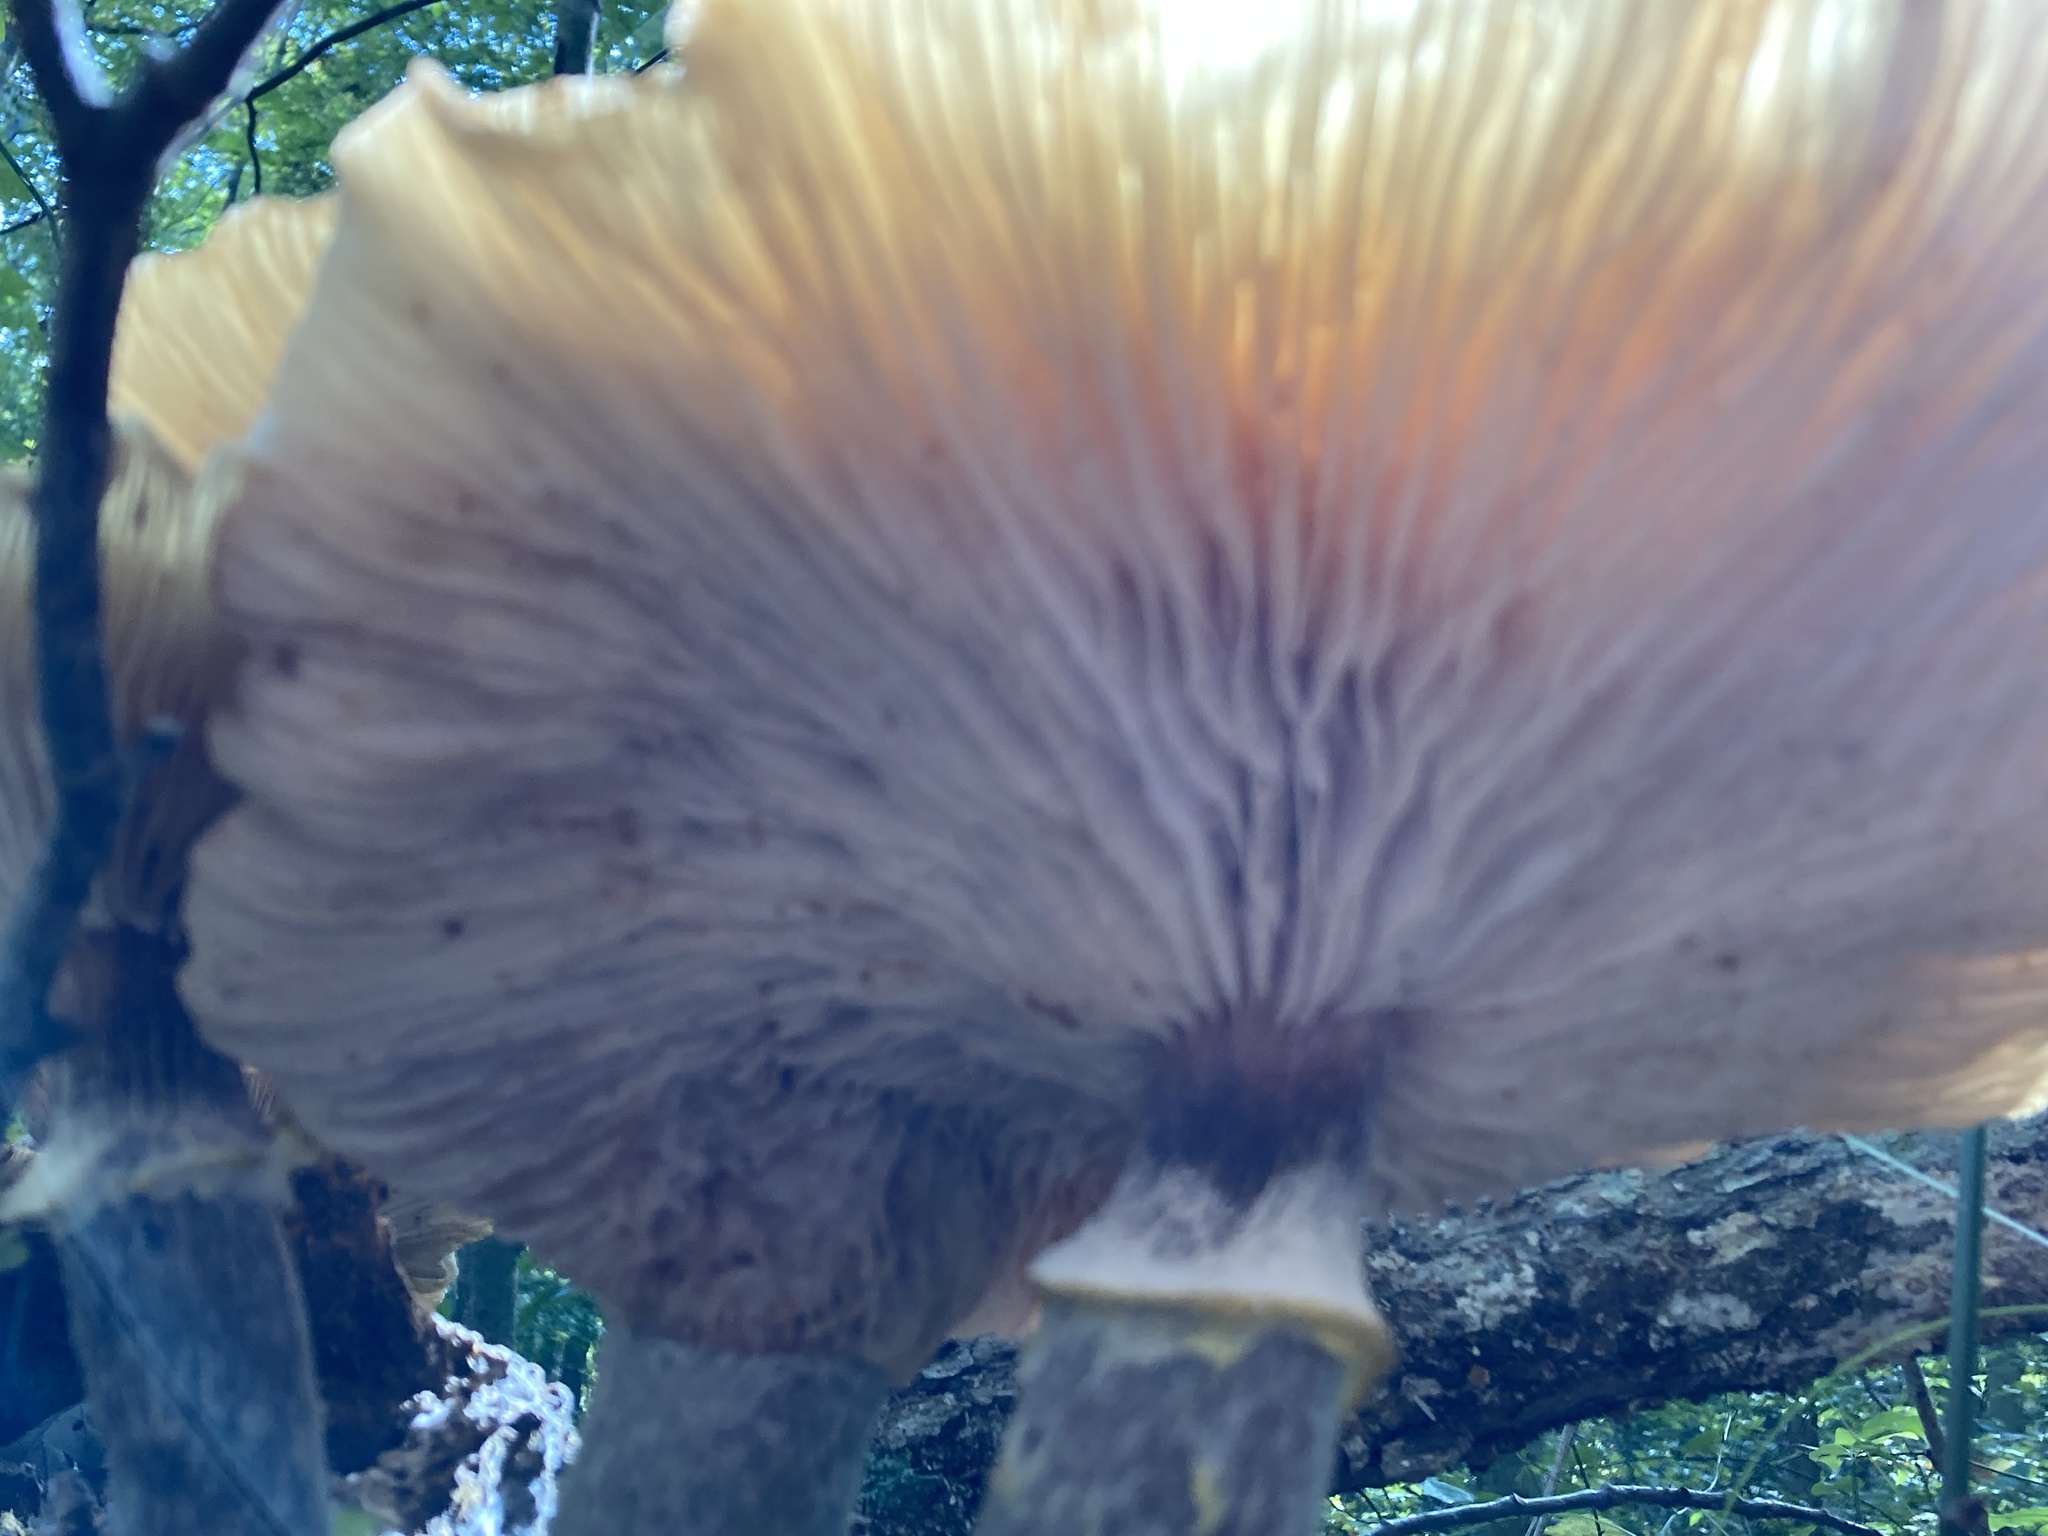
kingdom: Fungi
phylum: Basidiomycota
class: Agaricomycetes
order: Agaricales
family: Physalacriaceae
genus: Armillaria
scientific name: Armillaria mellea
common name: Honey fungus
